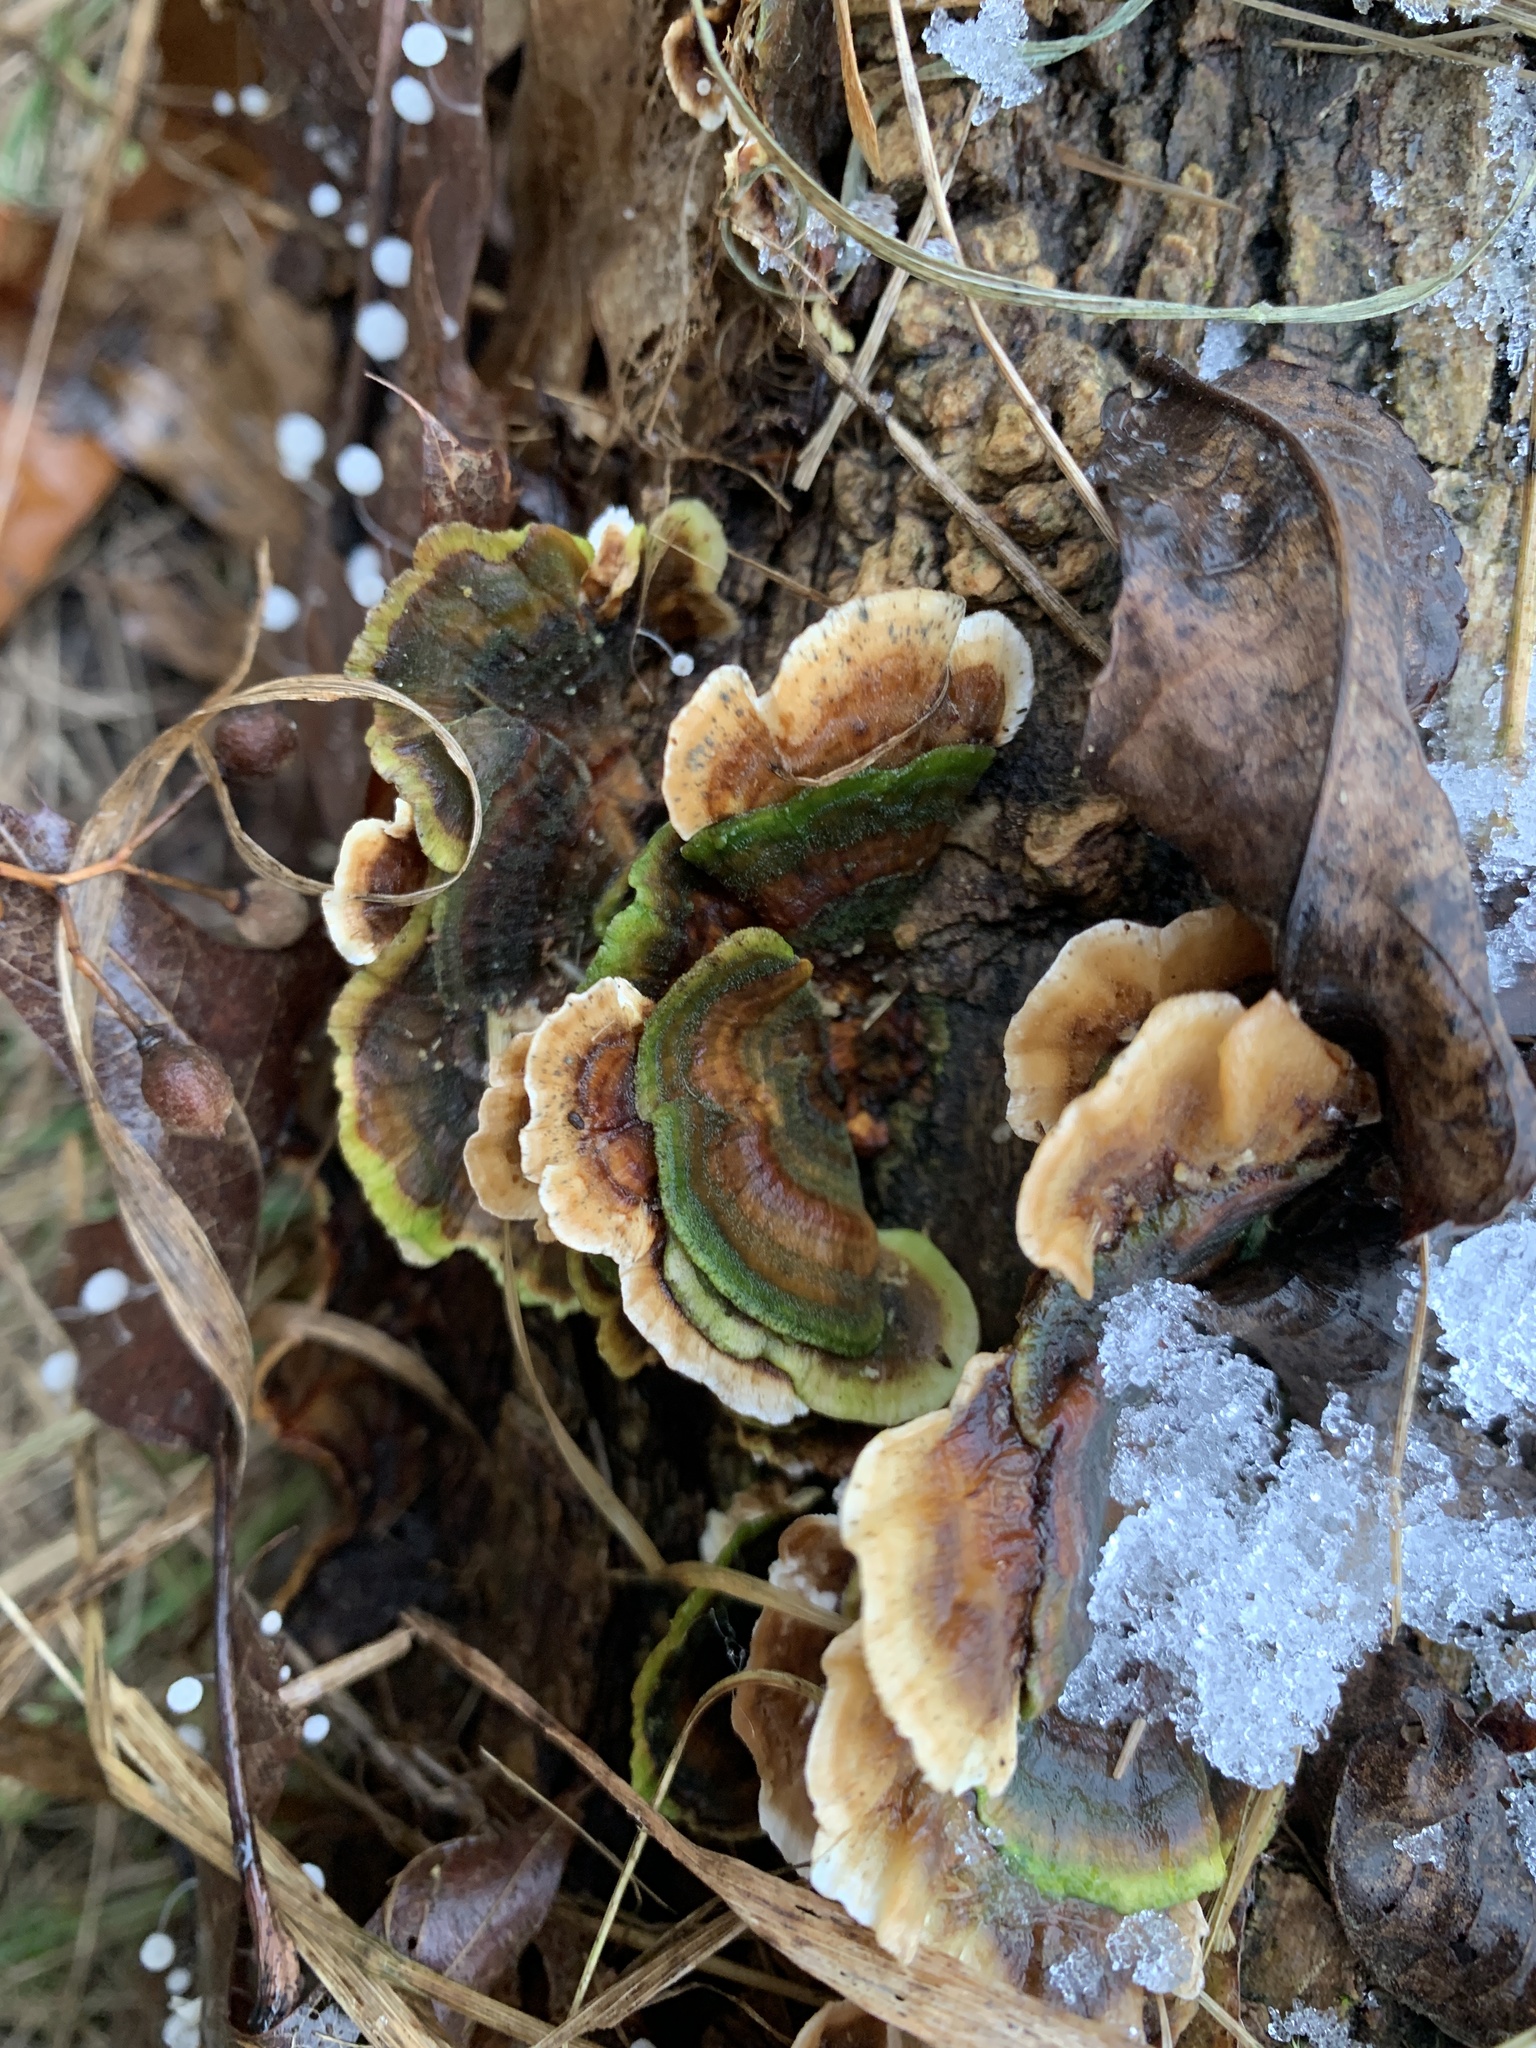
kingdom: Fungi
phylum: Basidiomycota
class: Agaricomycetes
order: Polyporales
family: Polyporaceae
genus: Trametes
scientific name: Trametes versicolor
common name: Turkeytail
